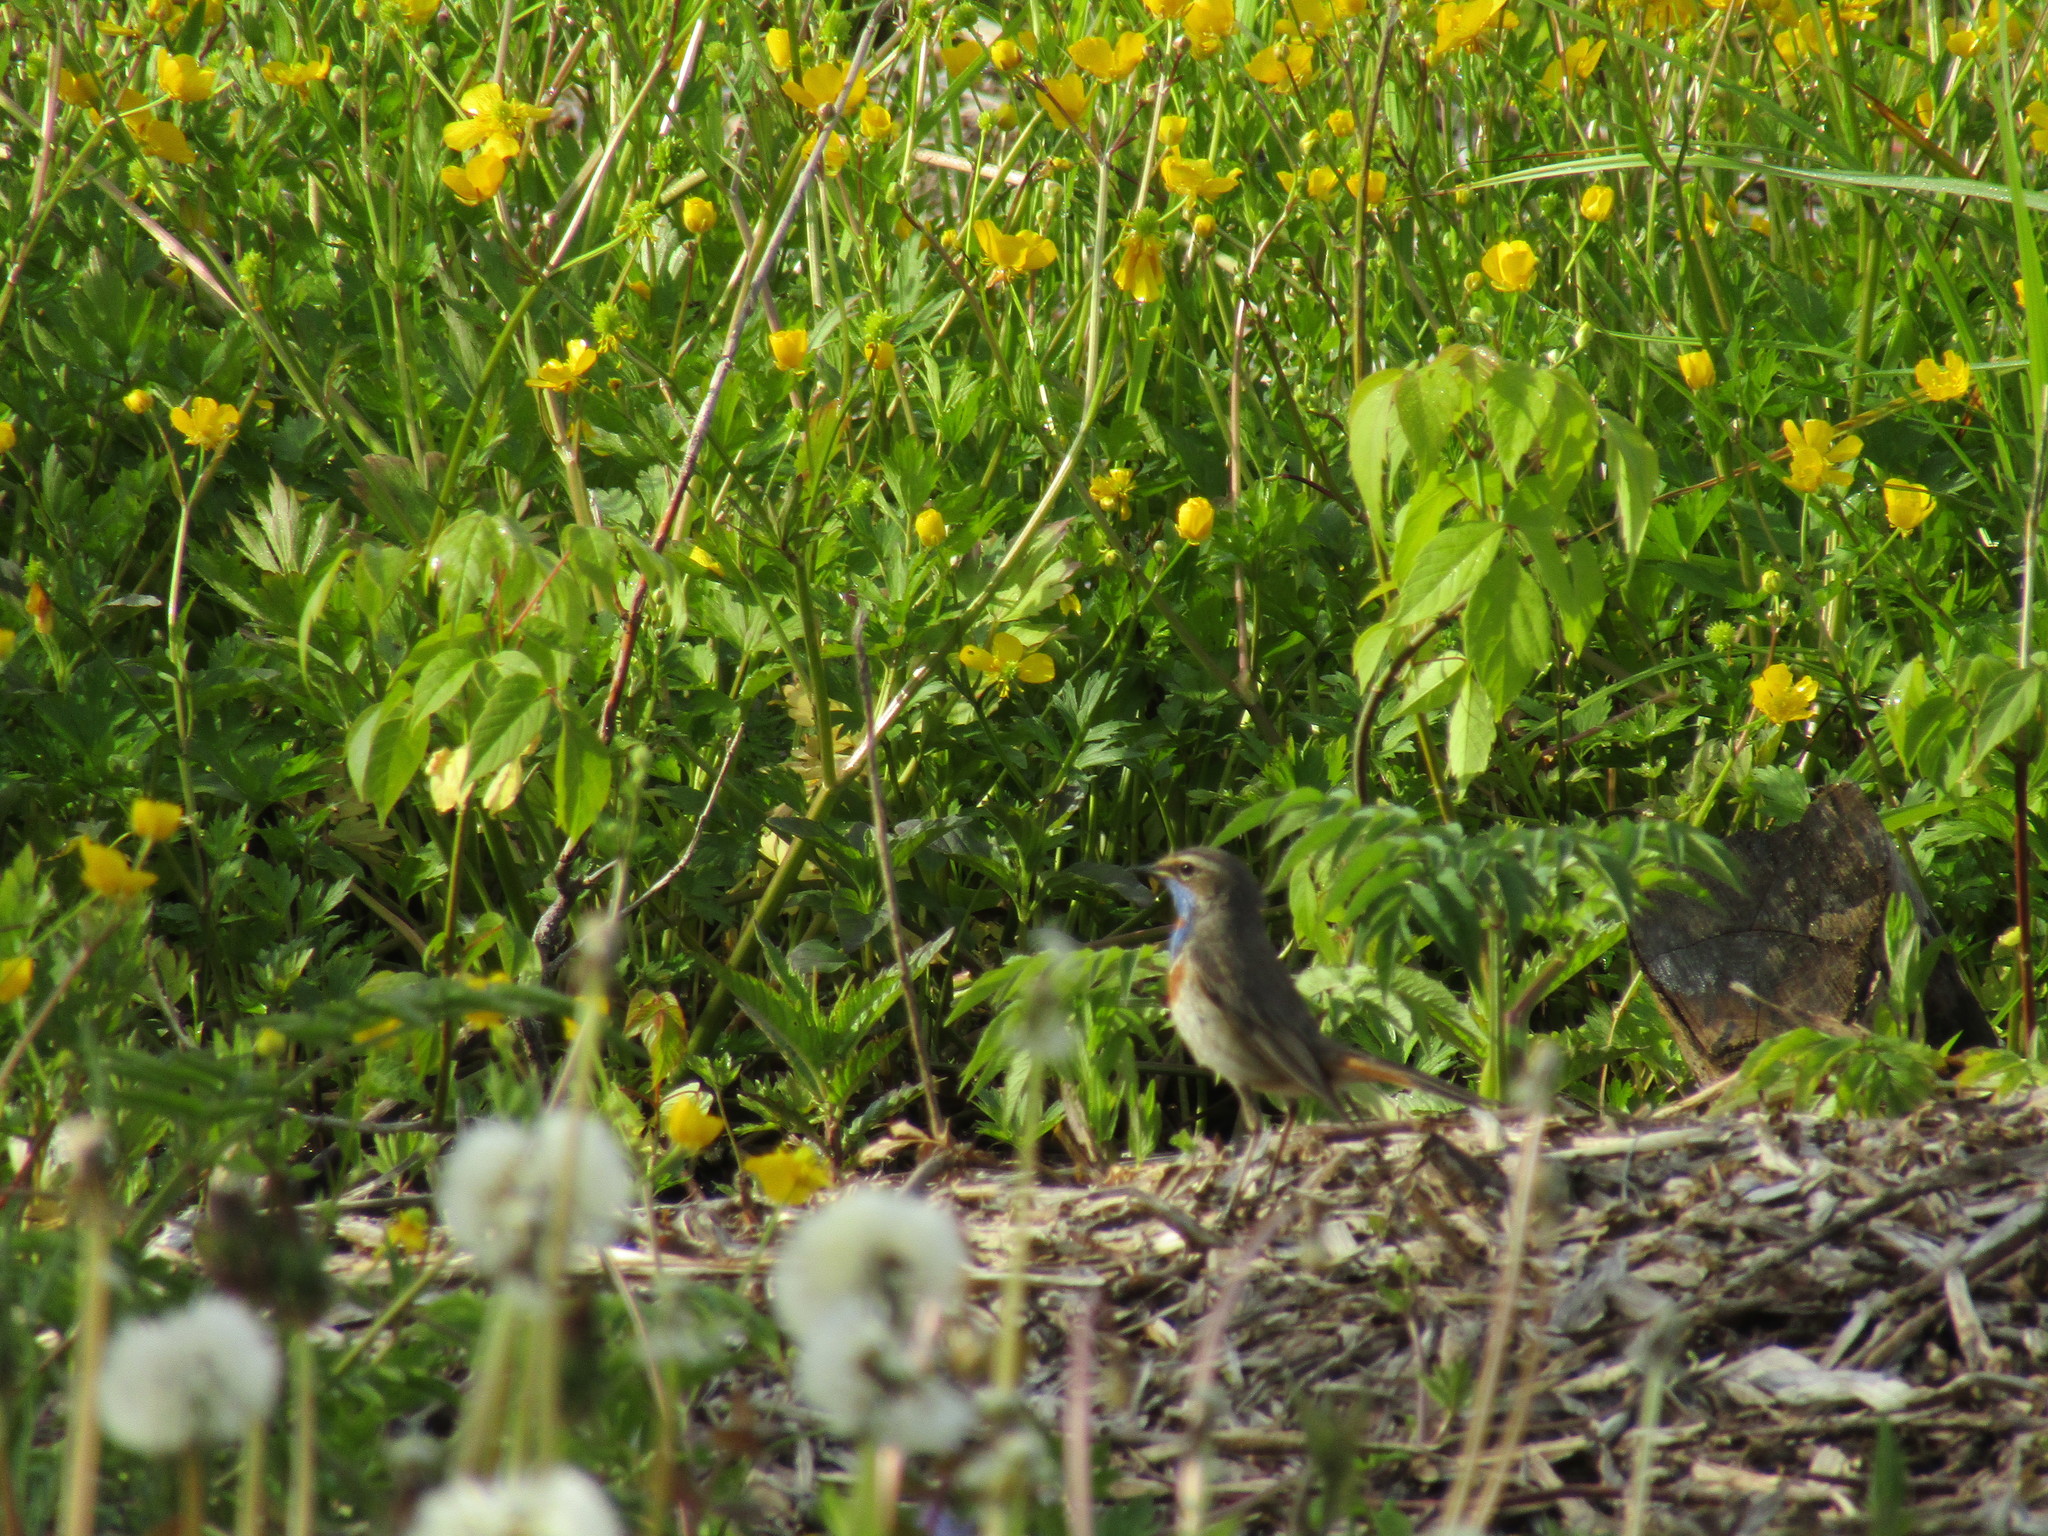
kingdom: Animalia
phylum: Chordata
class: Aves
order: Passeriformes
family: Muscicapidae
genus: Luscinia
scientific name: Luscinia svecica
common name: Bluethroat
